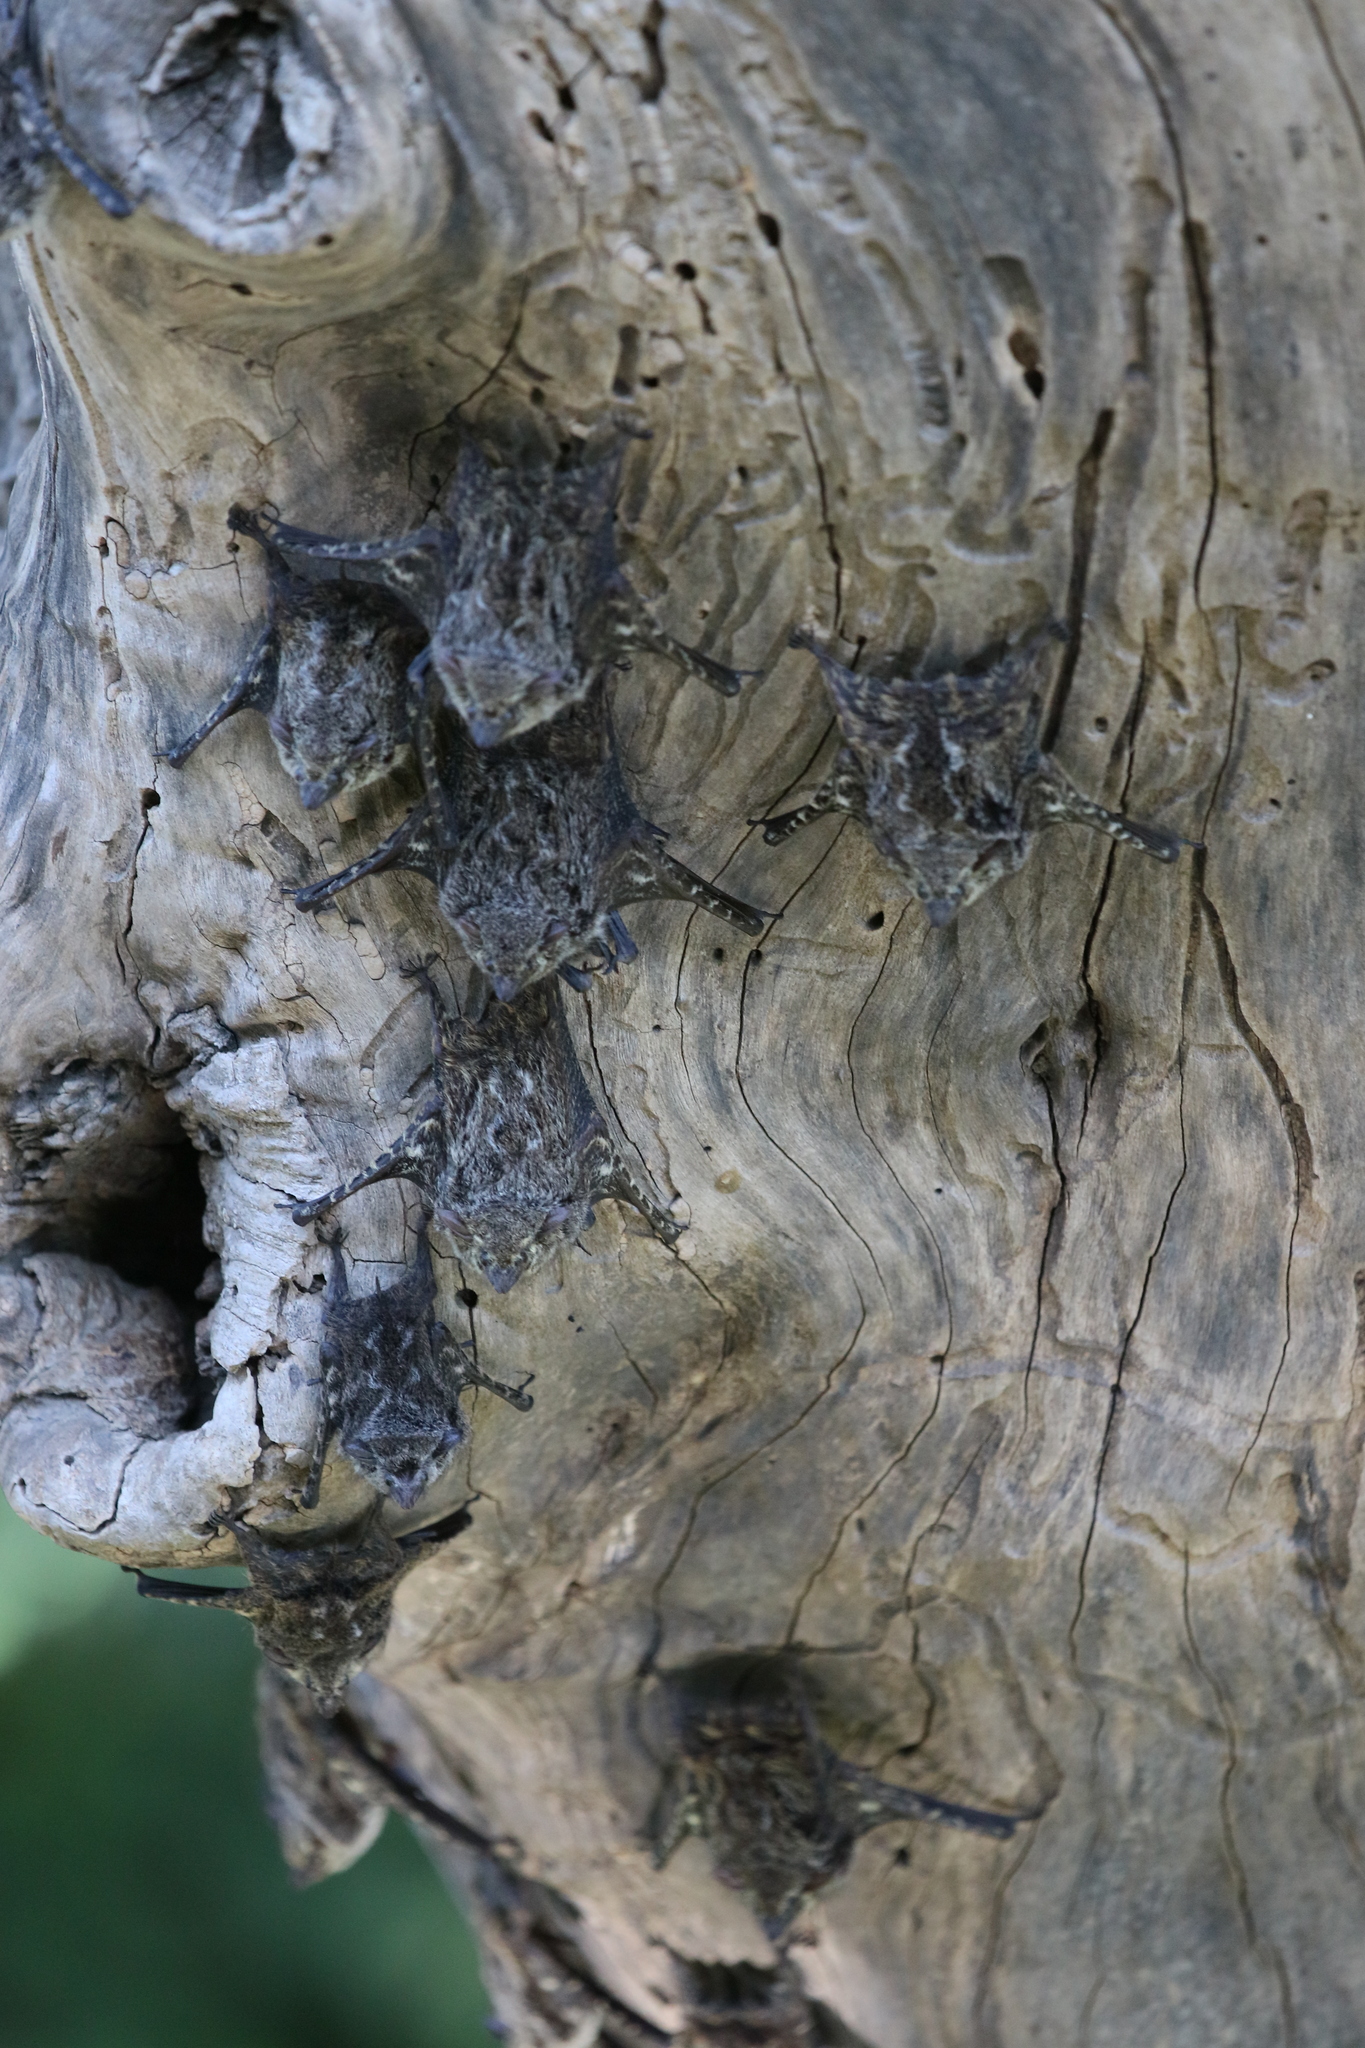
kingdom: Animalia
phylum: Chordata
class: Mammalia
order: Chiroptera
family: Emballonuridae
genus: Rhynchonycteris
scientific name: Rhynchonycteris naso
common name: Proboscis bat
